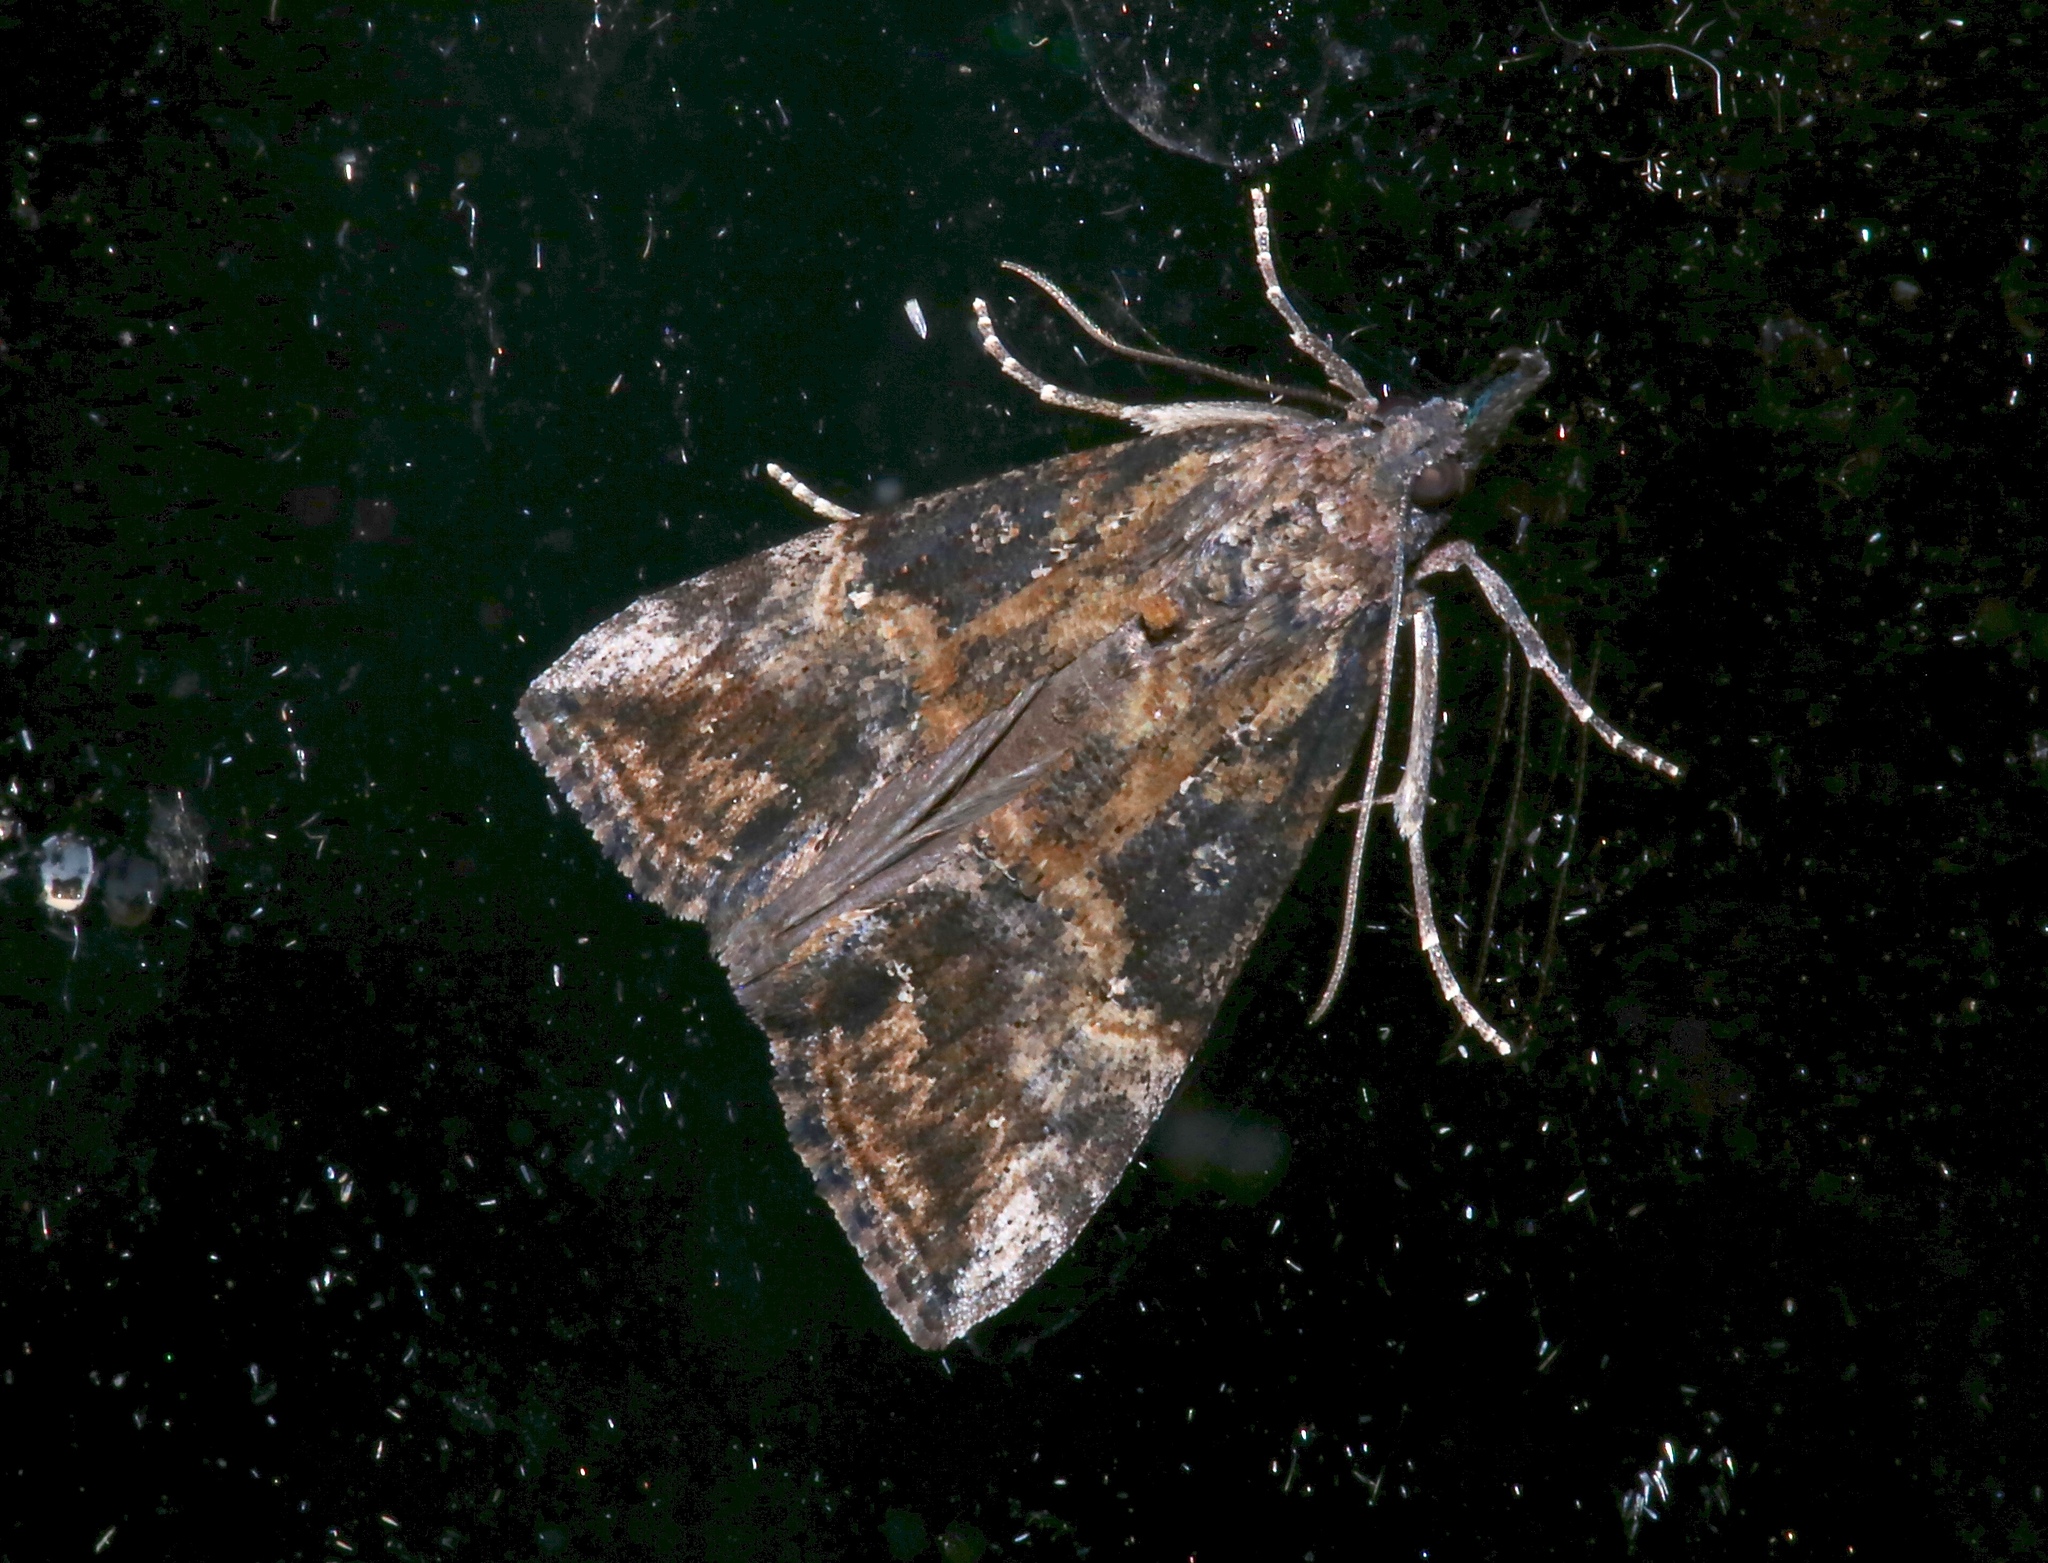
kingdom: Animalia
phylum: Arthropoda
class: Insecta
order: Lepidoptera
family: Erebidae
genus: Hypena
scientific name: Hypena scabra
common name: Green cloverworm
